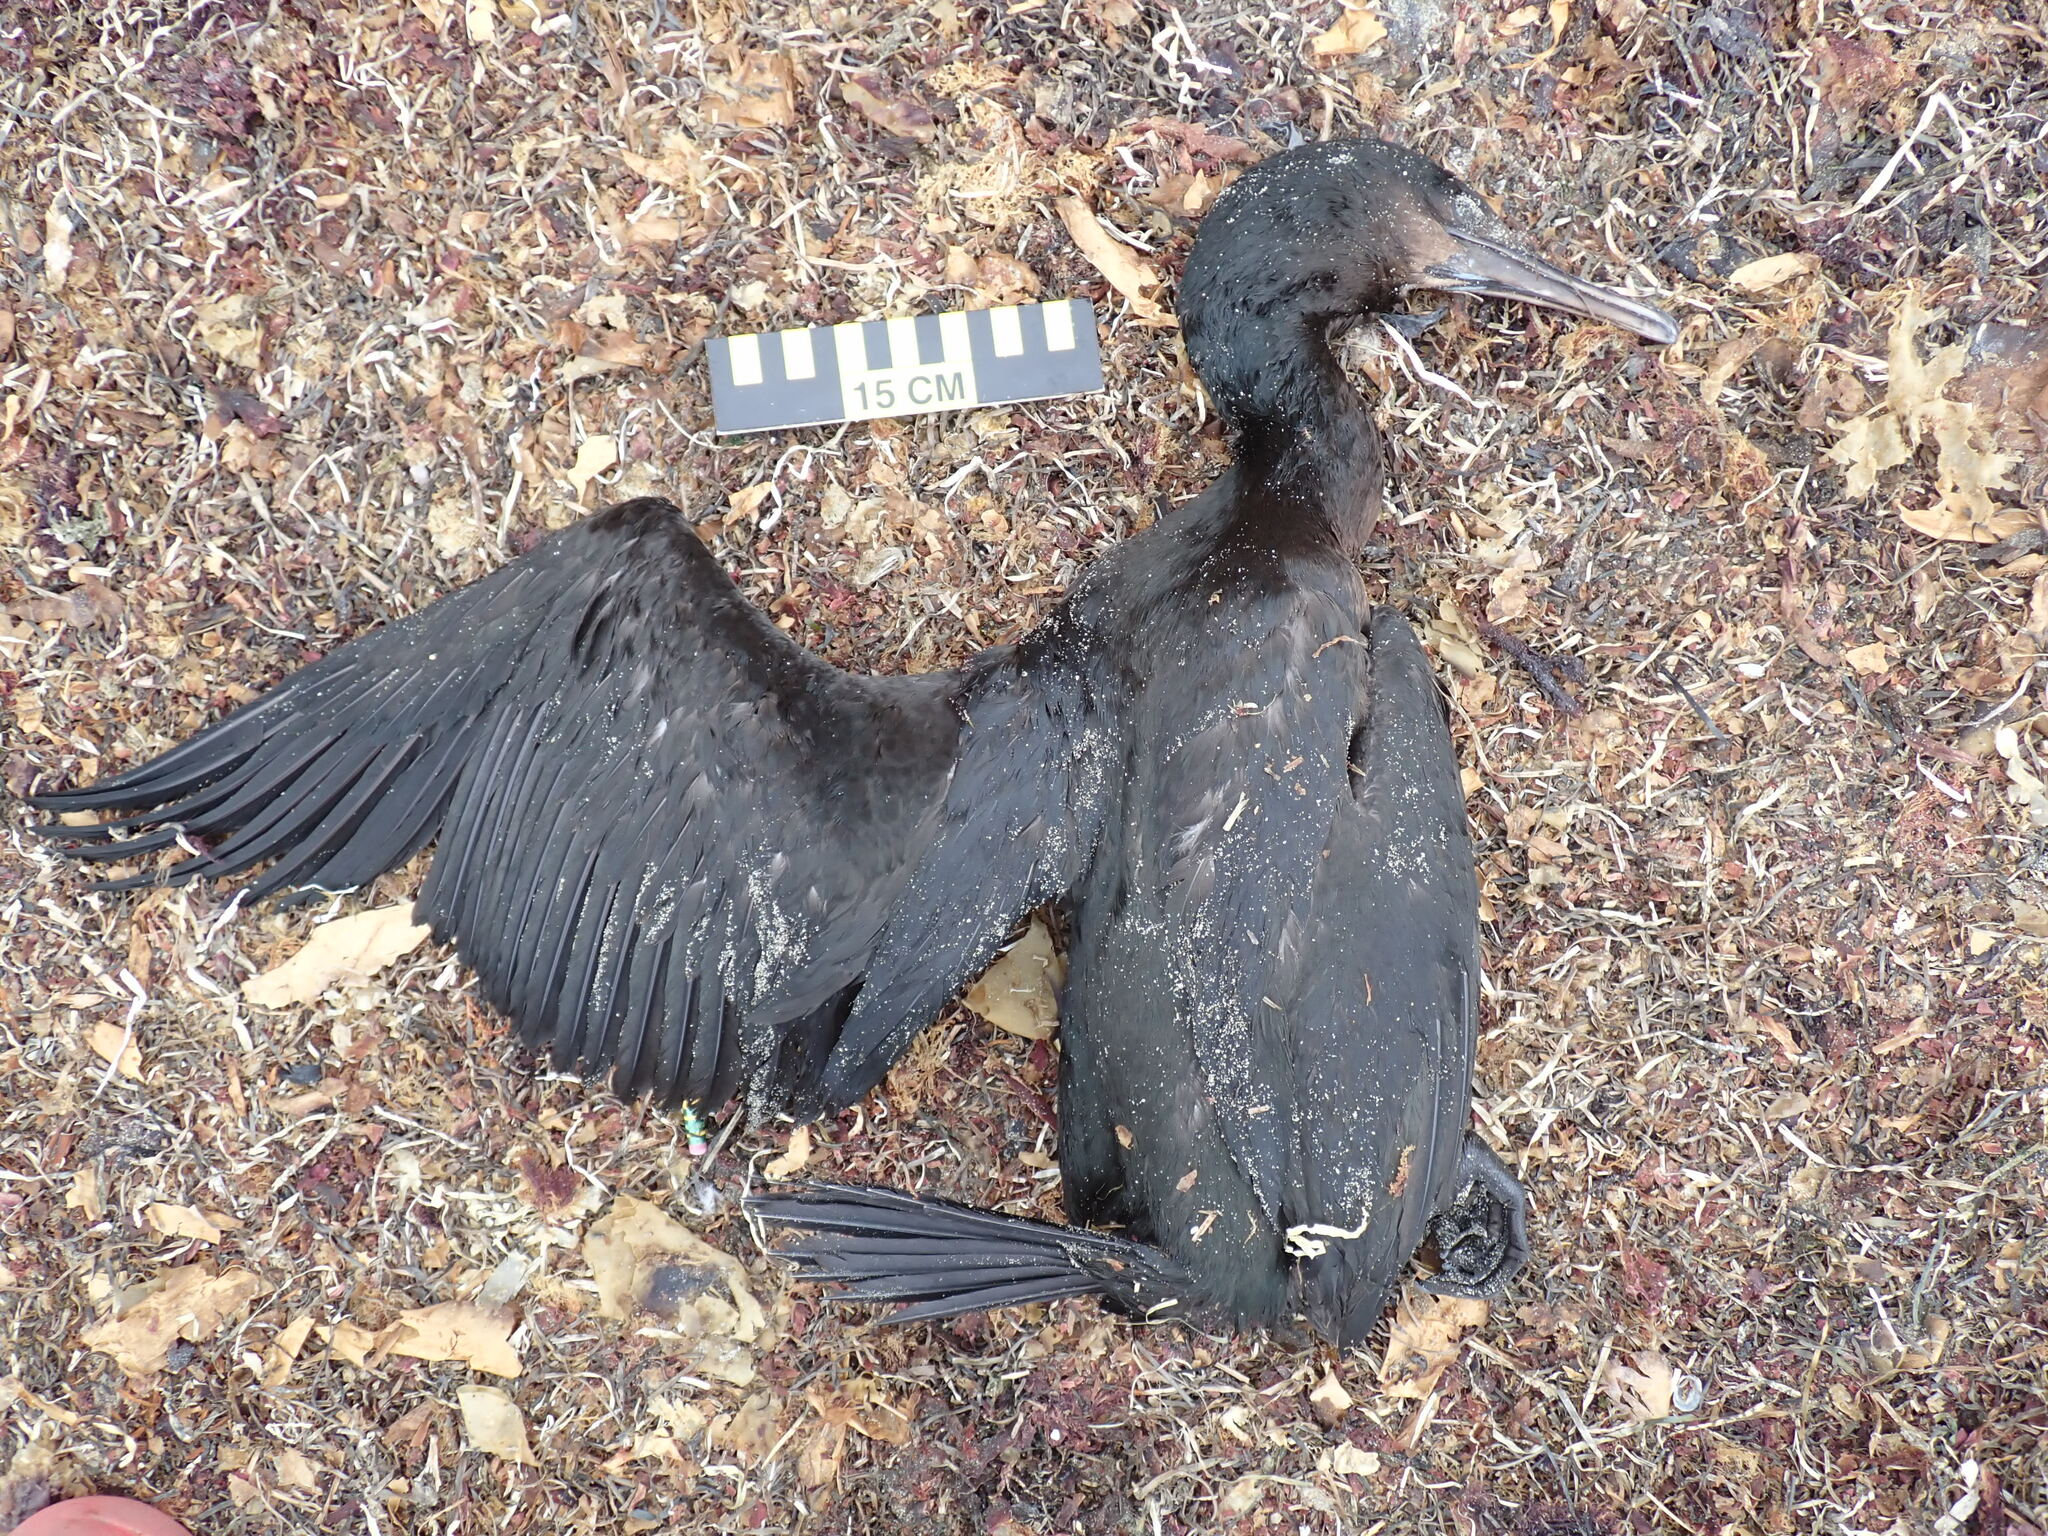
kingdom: Animalia
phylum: Chordata
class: Aves
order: Suliformes
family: Phalacrocoracidae
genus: Urile
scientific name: Urile penicillatus
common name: Brandt's cormorant
